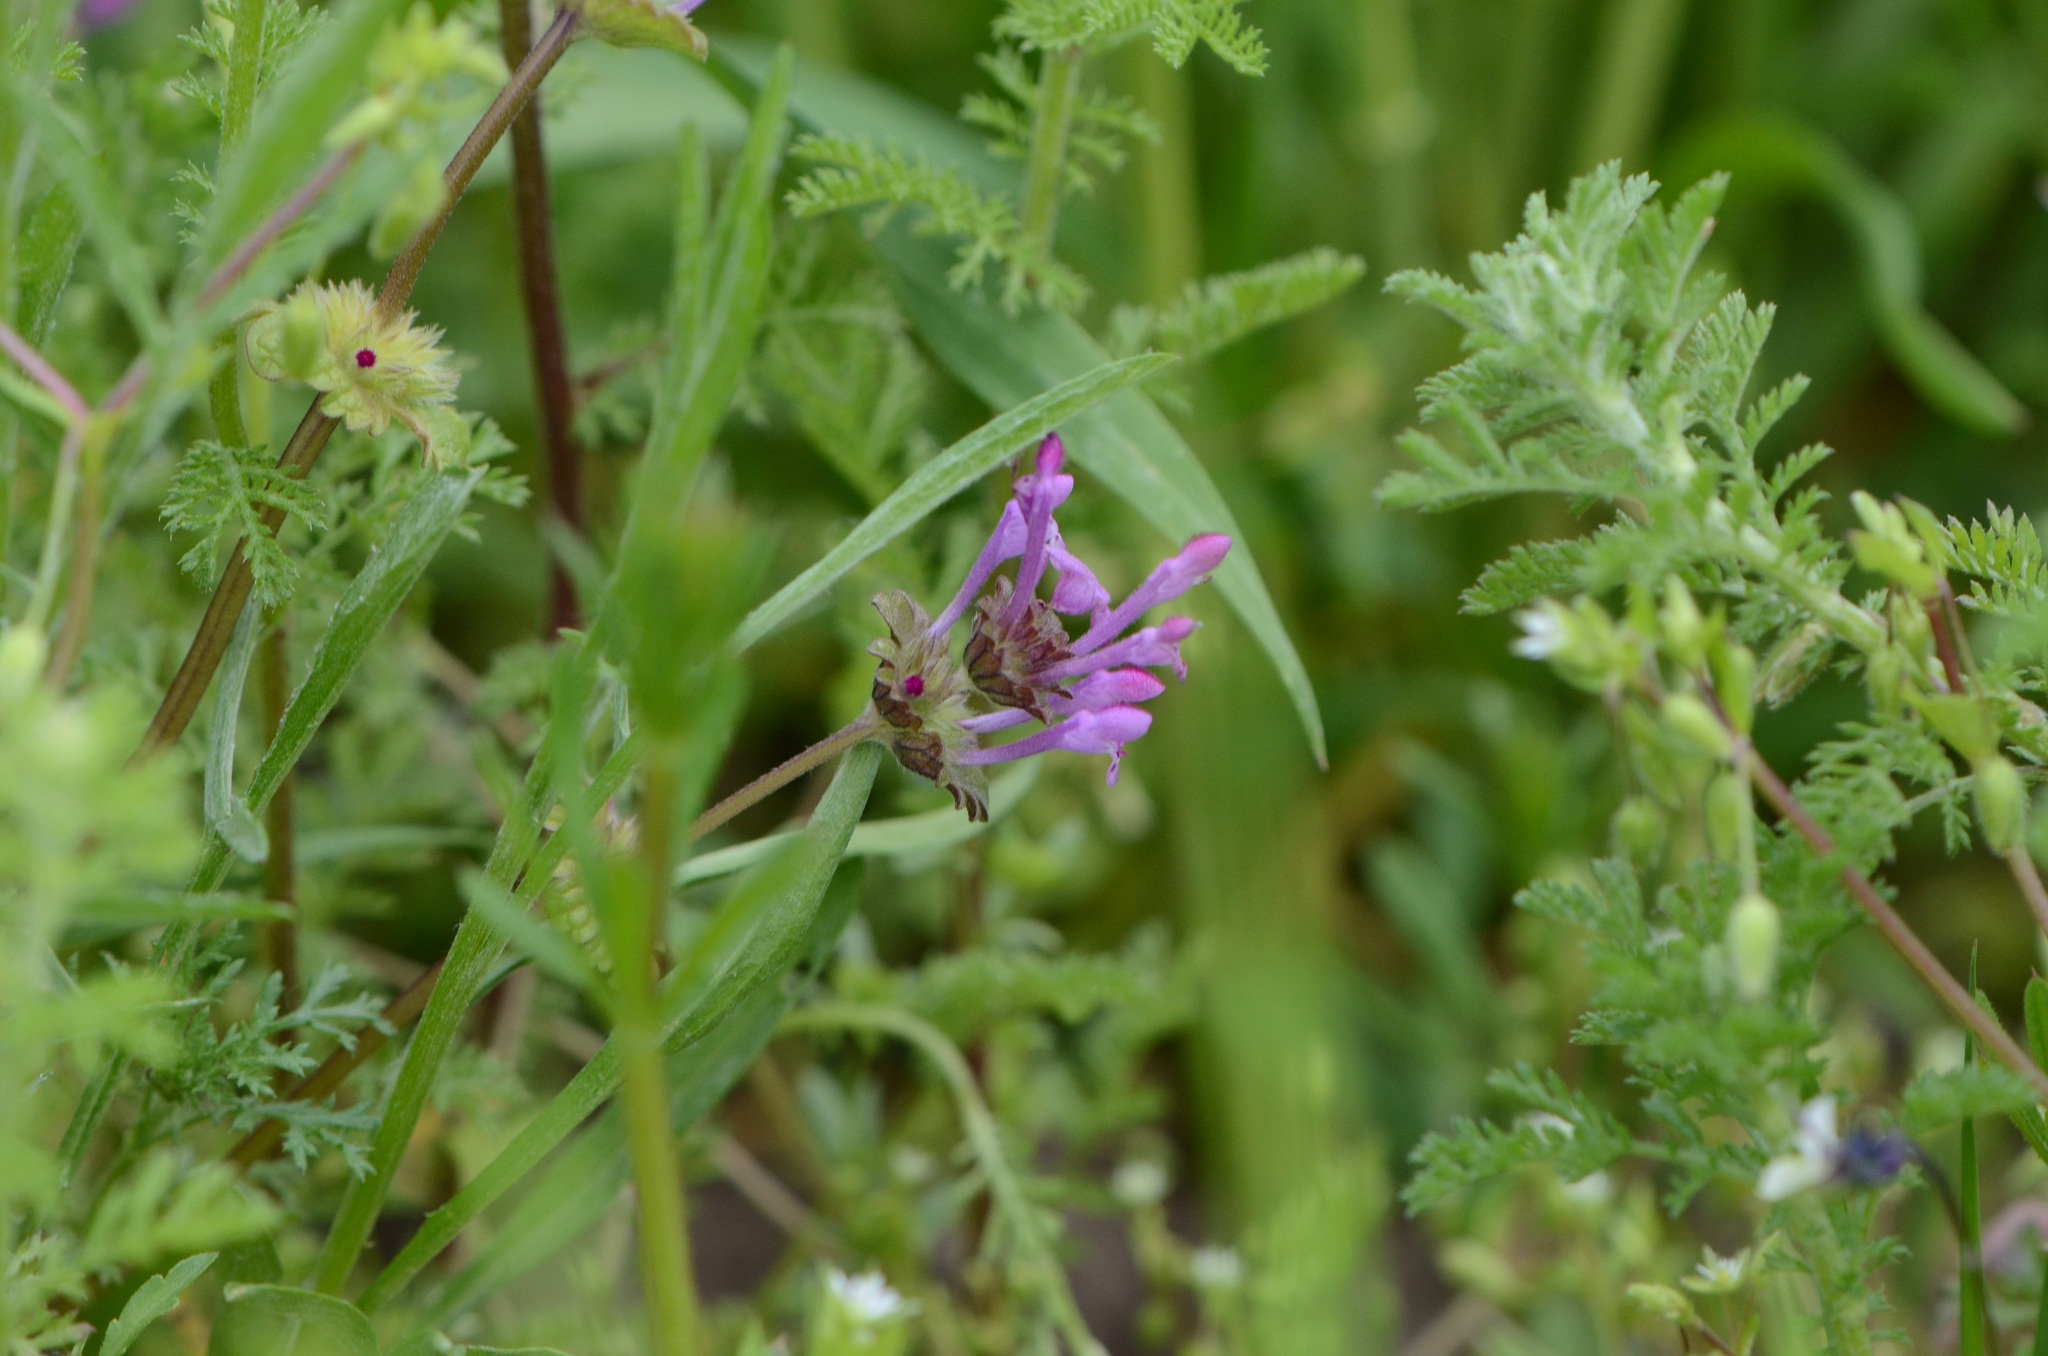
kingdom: Plantae
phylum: Tracheophyta
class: Magnoliopsida
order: Lamiales
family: Lamiaceae
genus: Lamium
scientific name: Lamium amplexicaule
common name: Henbit dead-nettle
